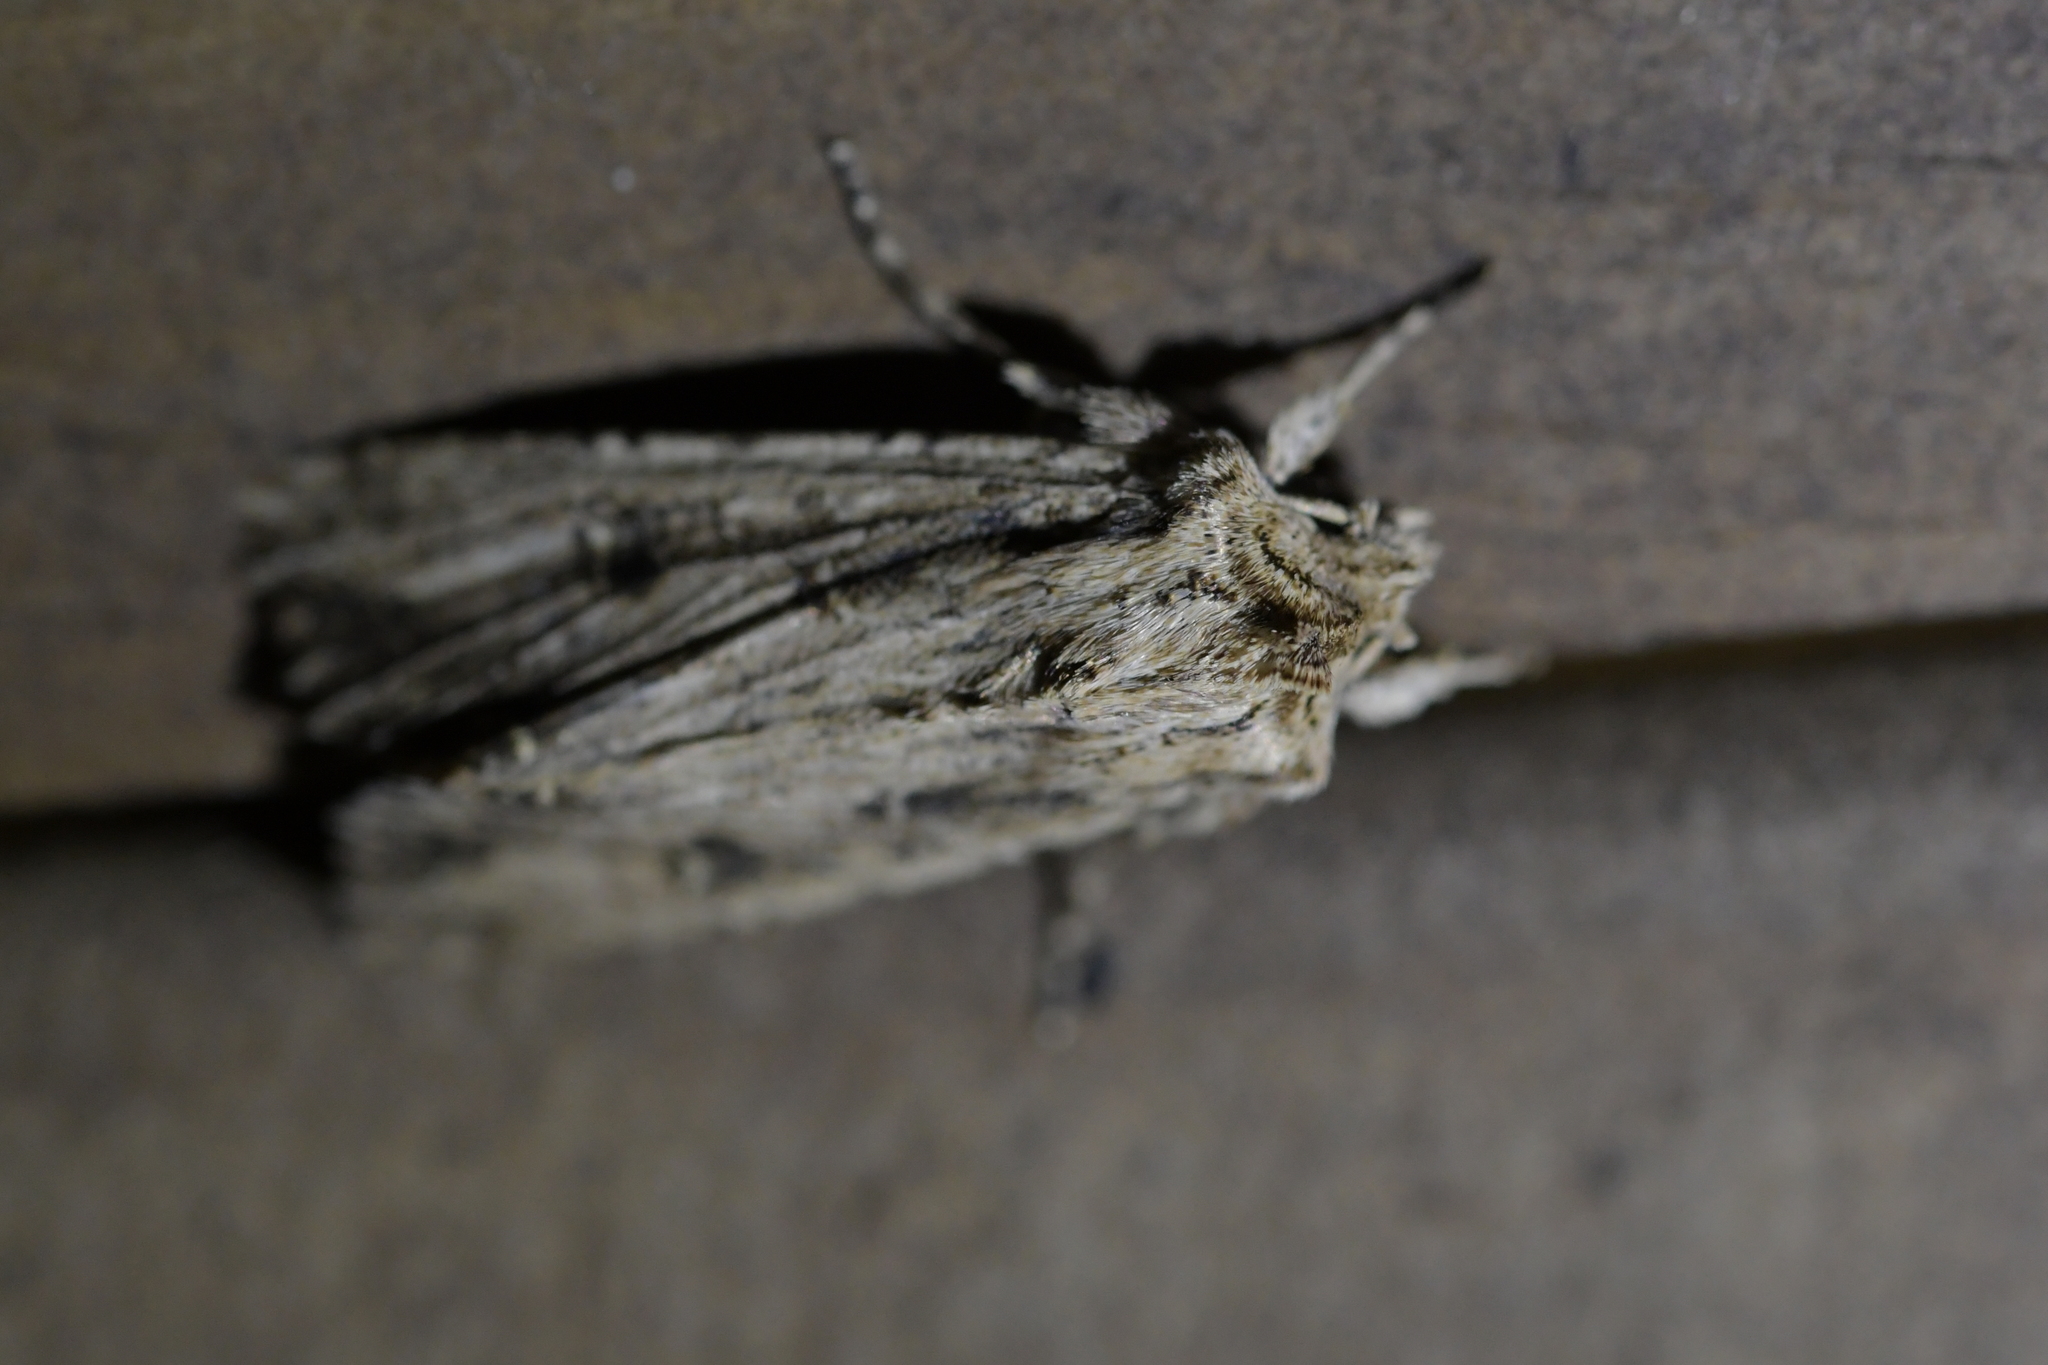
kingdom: Animalia
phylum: Arthropoda
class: Insecta
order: Lepidoptera
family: Noctuidae
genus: Ichneutica
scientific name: Ichneutica lignana
